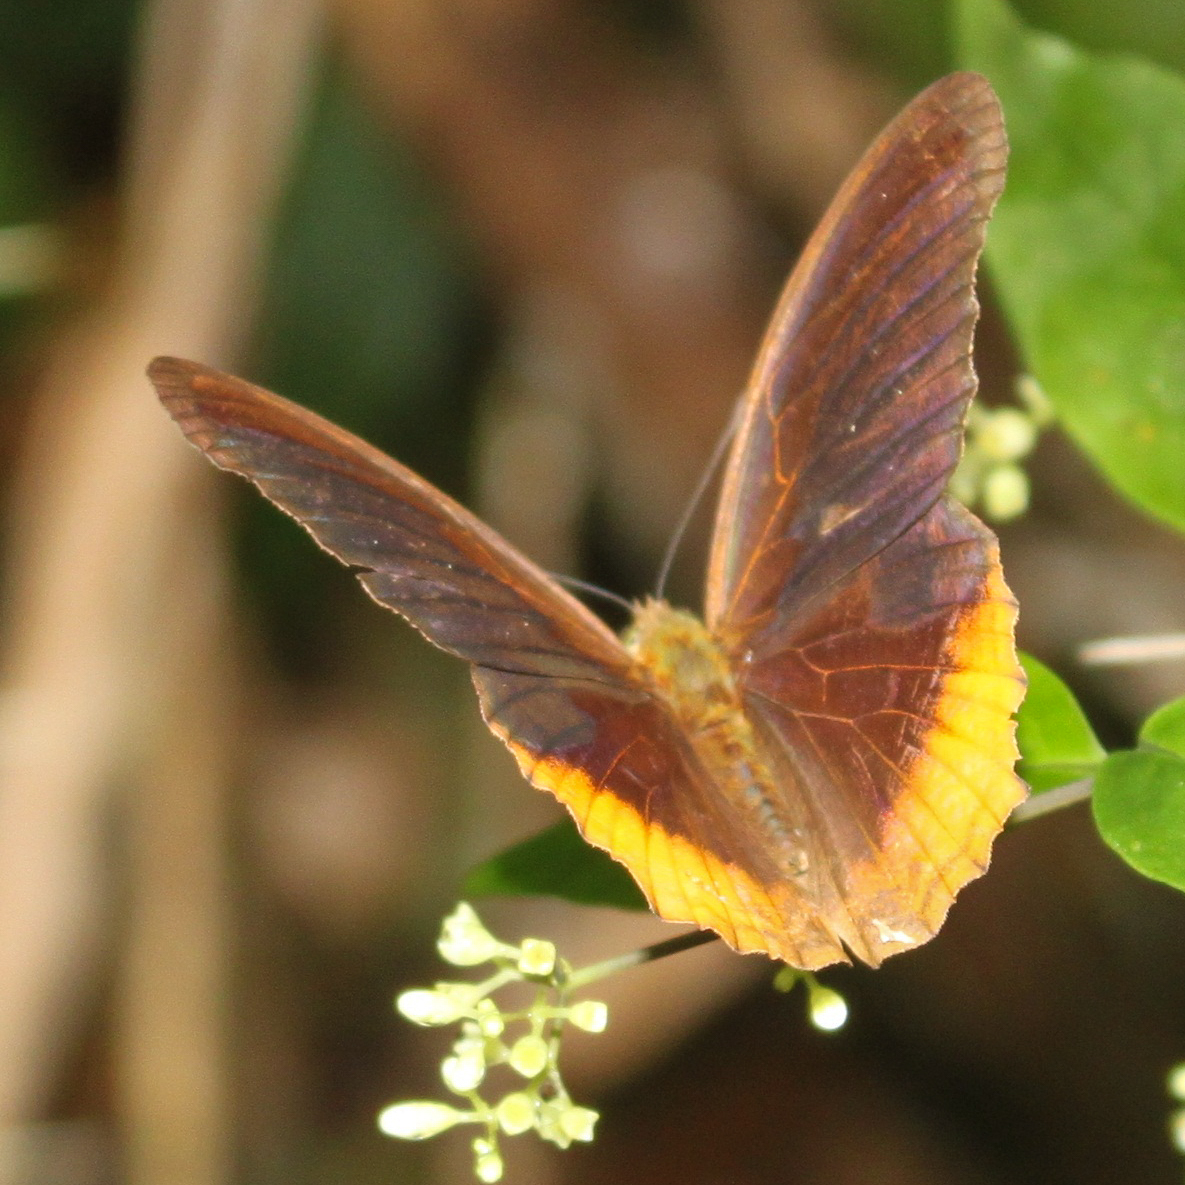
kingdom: Animalia
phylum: Arthropoda
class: Insecta
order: Lepidoptera
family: Nymphalidae
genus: Terinos
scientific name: Terinos terpander
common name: Royal assyrian
